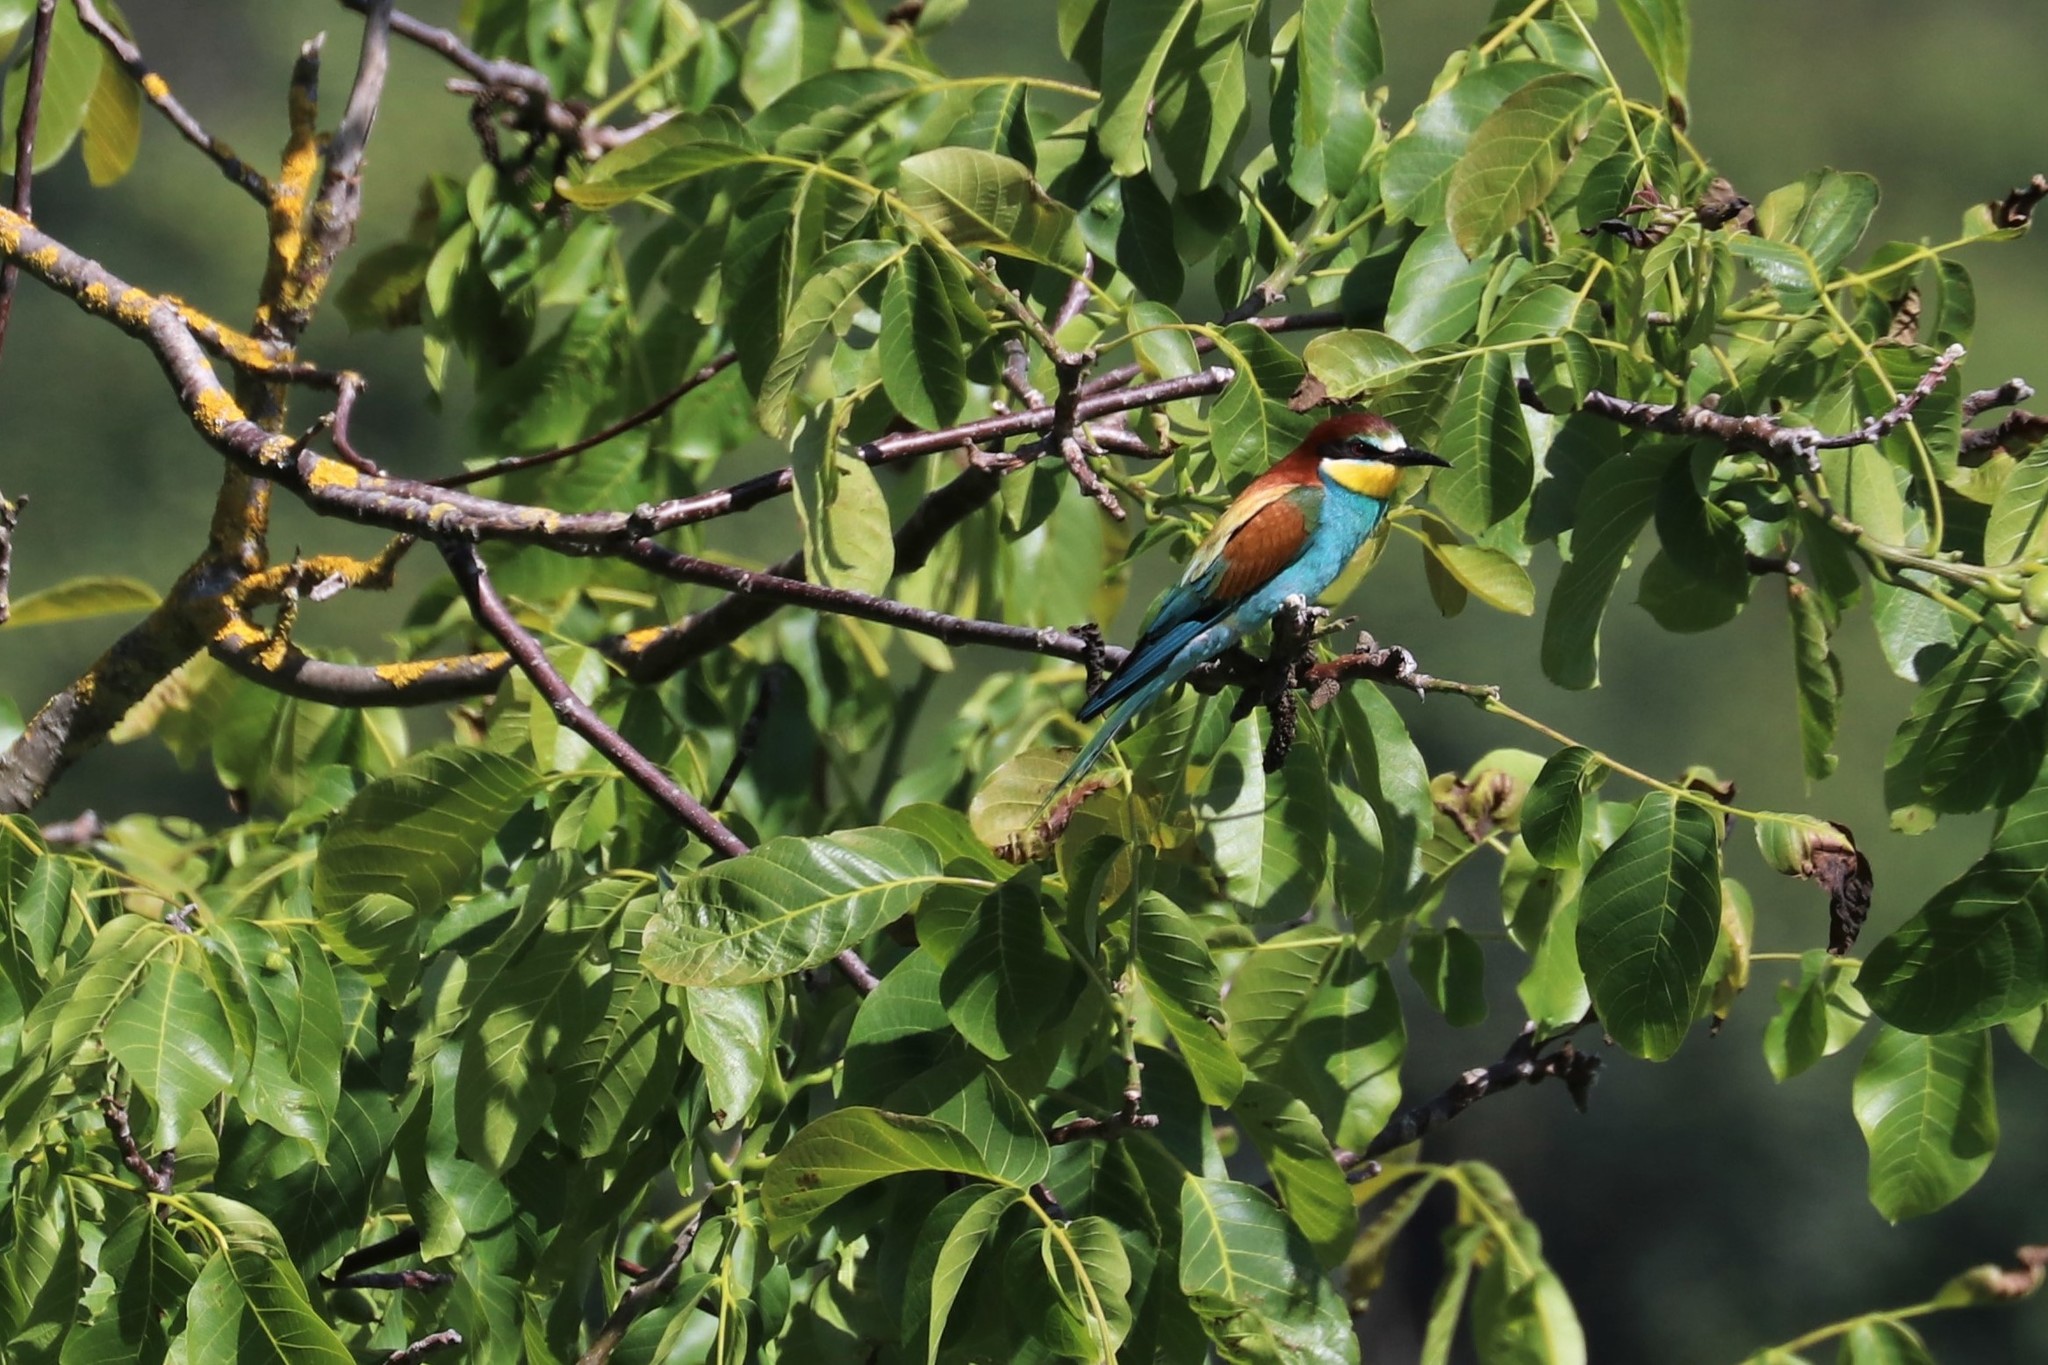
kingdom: Animalia
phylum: Chordata
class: Aves
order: Coraciiformes
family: Meropidae
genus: Merops
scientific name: Merops apiaster
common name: European bee-eater
